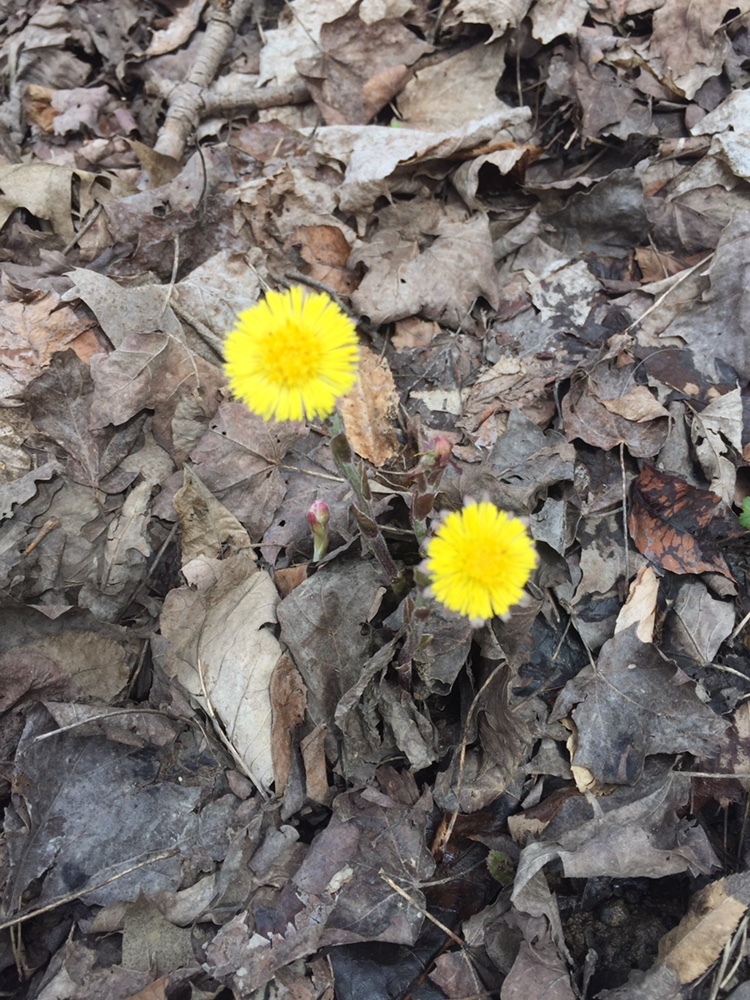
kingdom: Plantae
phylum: Tracheophyta
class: Magnoliopsida
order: Asterales
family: Asteraceae
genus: Tussilago
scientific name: Tussilago farfara
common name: Coltsfoot
